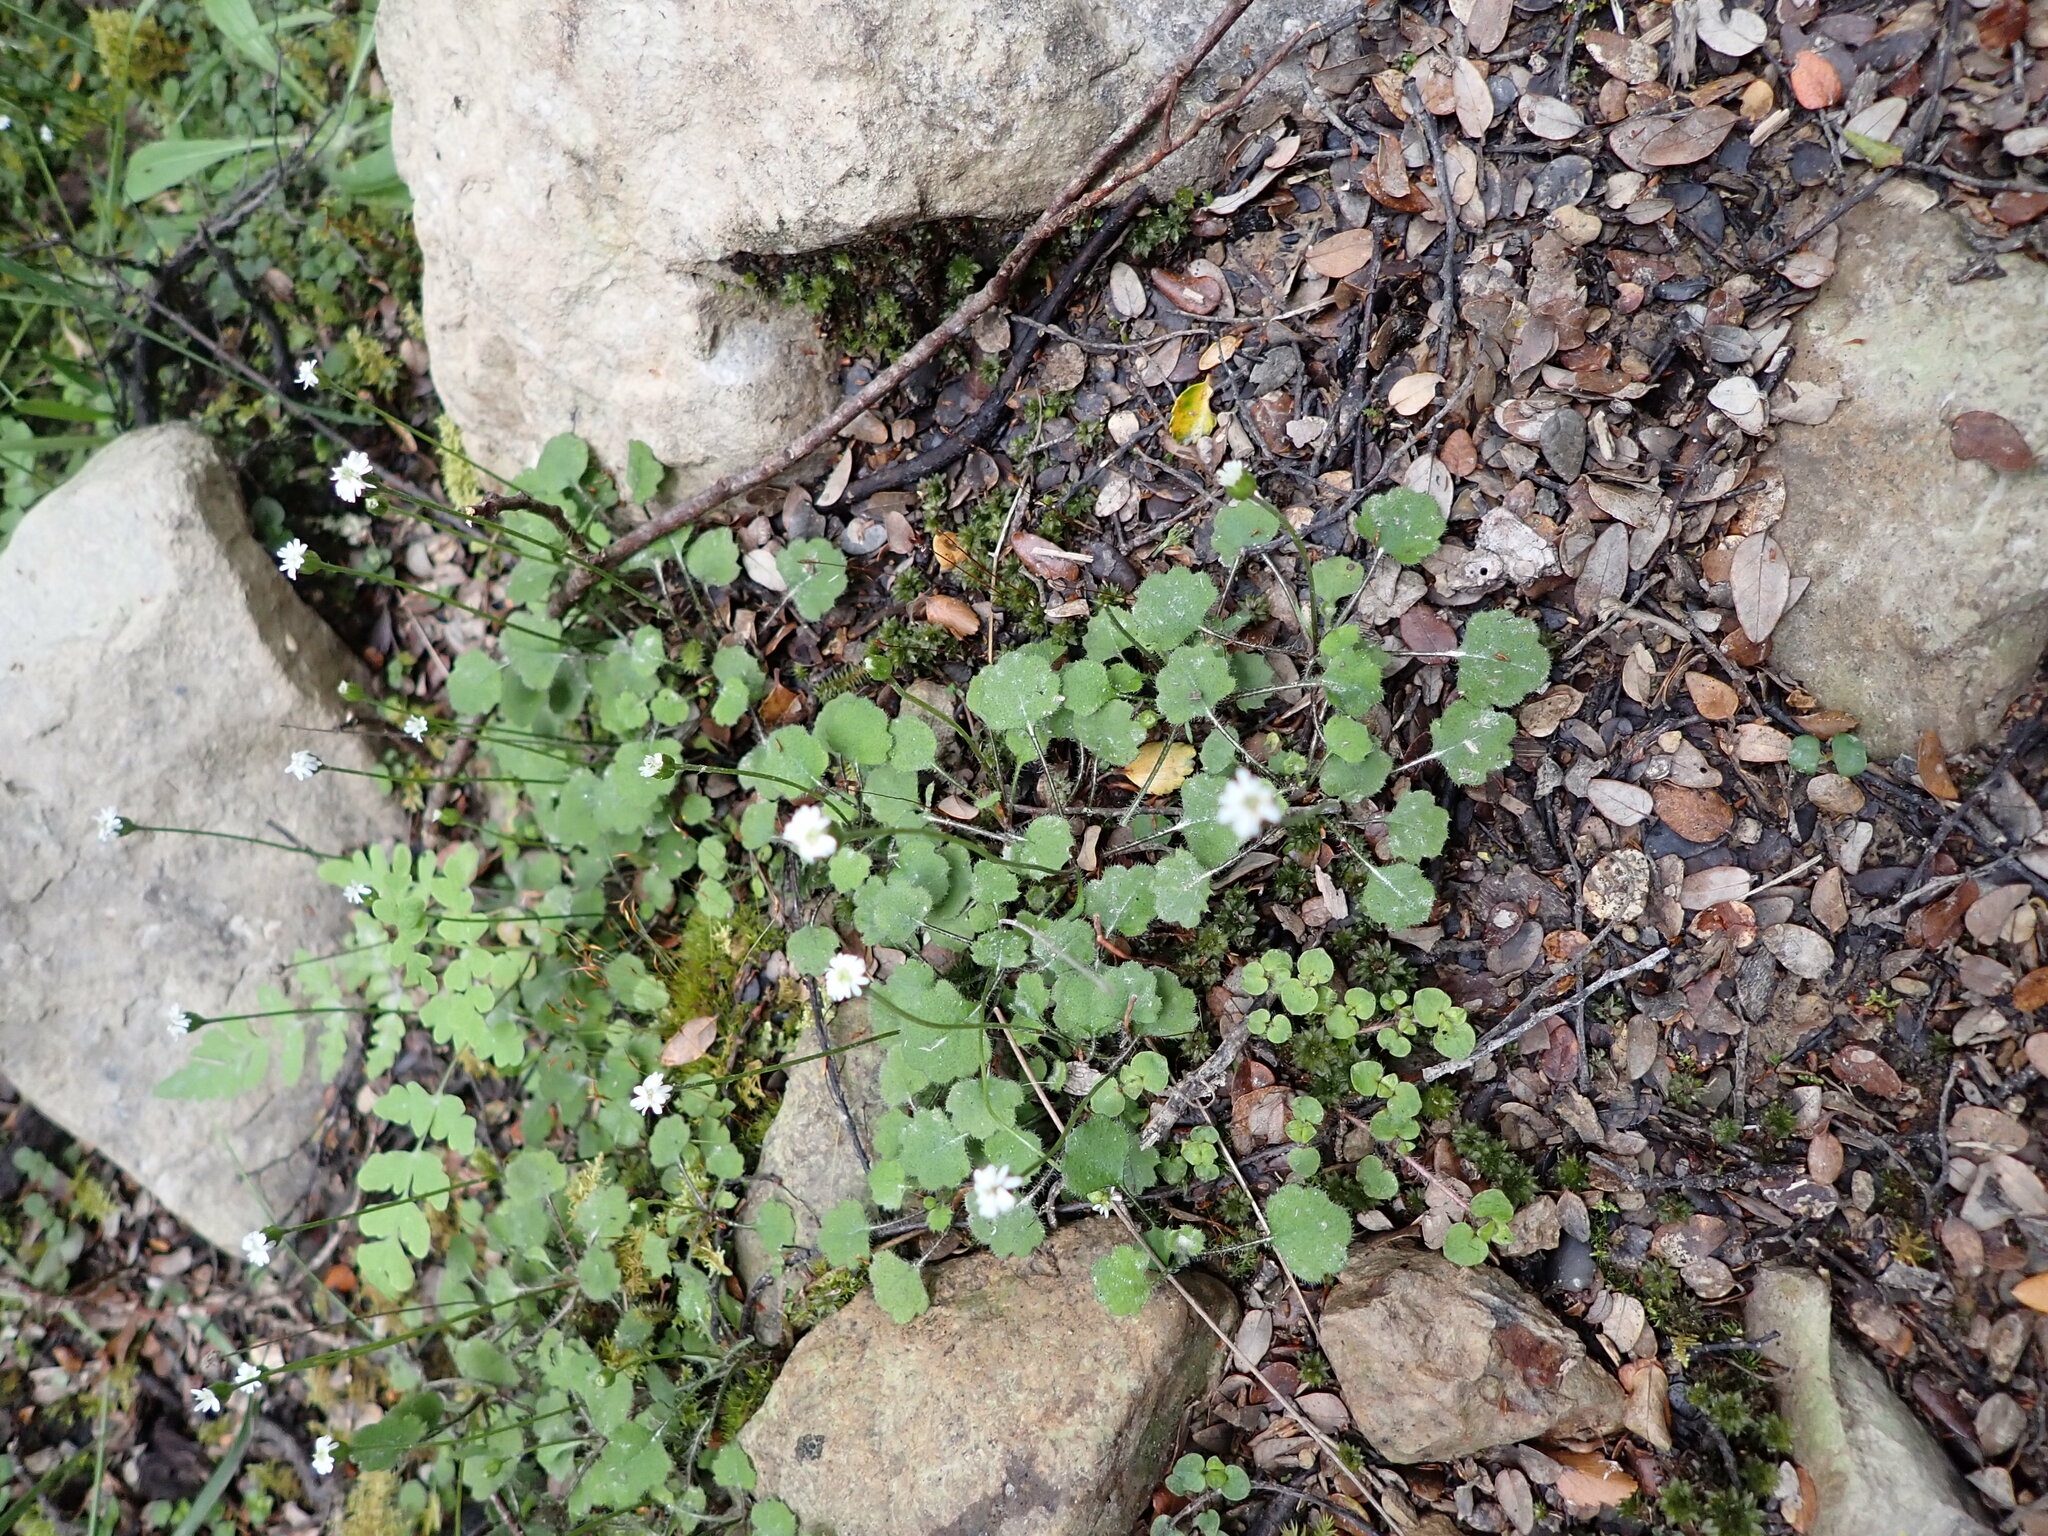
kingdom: Plantae
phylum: Tracheophyta
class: Magnoliopsida
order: Asterales
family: Asteraceae
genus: Lagenophora
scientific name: Lagenophora strangulata
